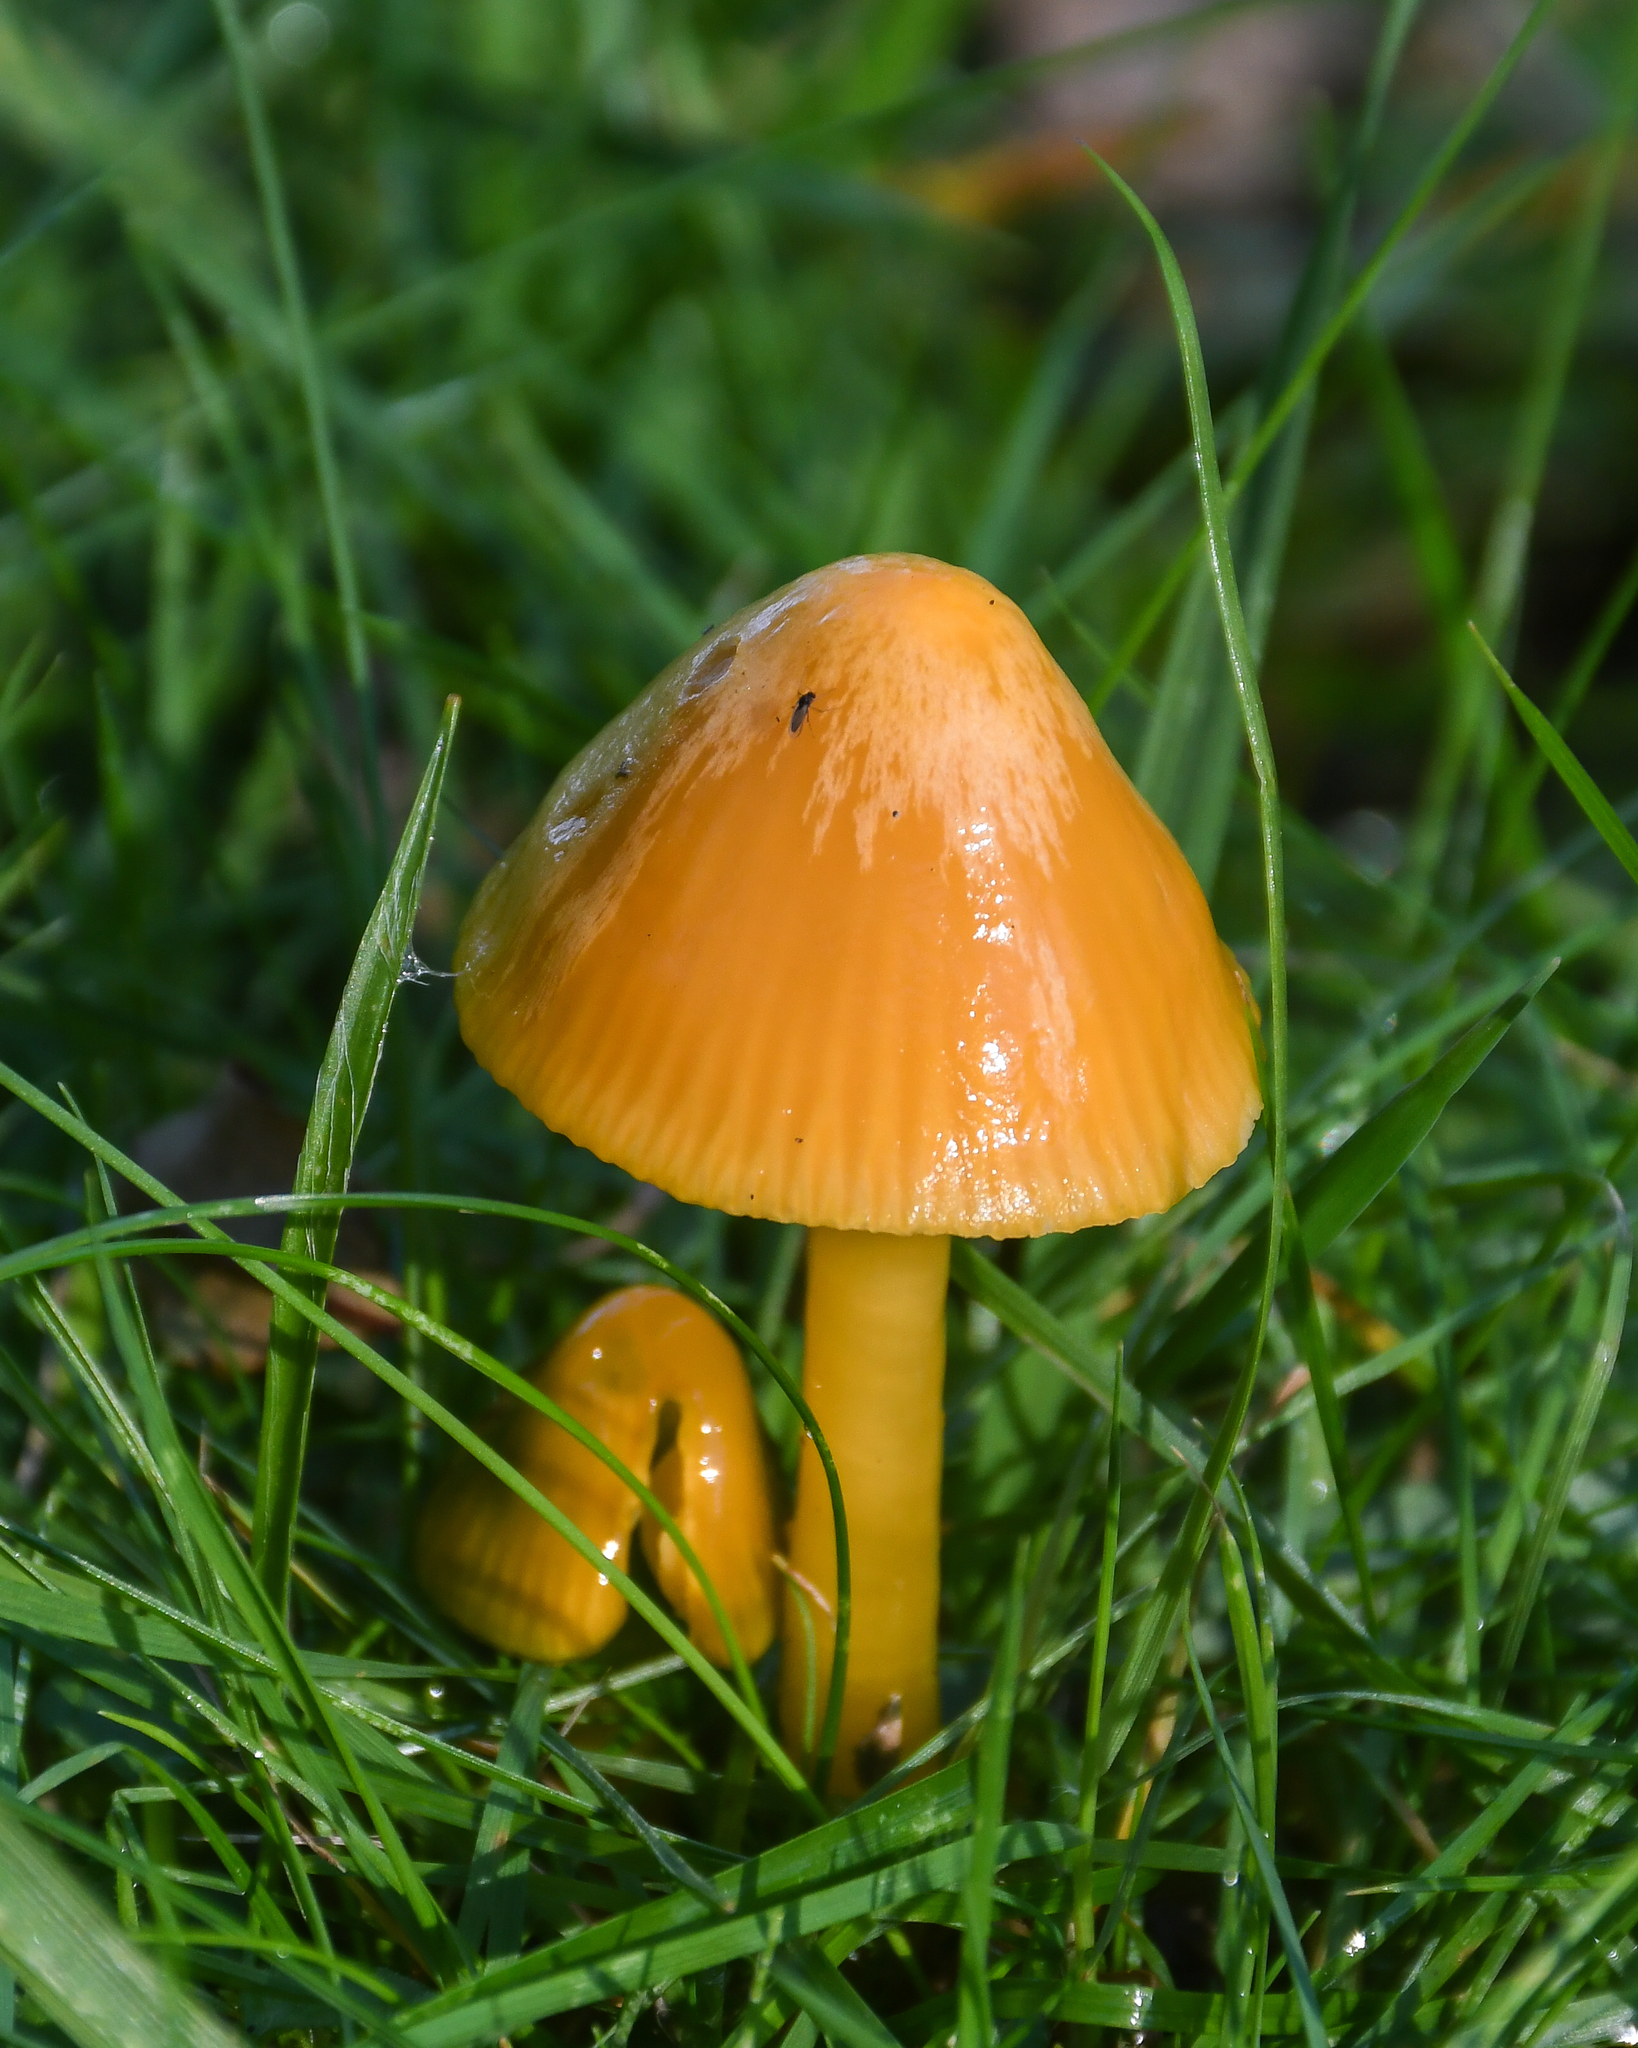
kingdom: Fungi
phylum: Basidiomycota
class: Agaricomycetes
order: Agaricales
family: Hygrophoraceae
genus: Gliophorus
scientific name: Gliophorus psittacinus
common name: Parrot wax-cap
